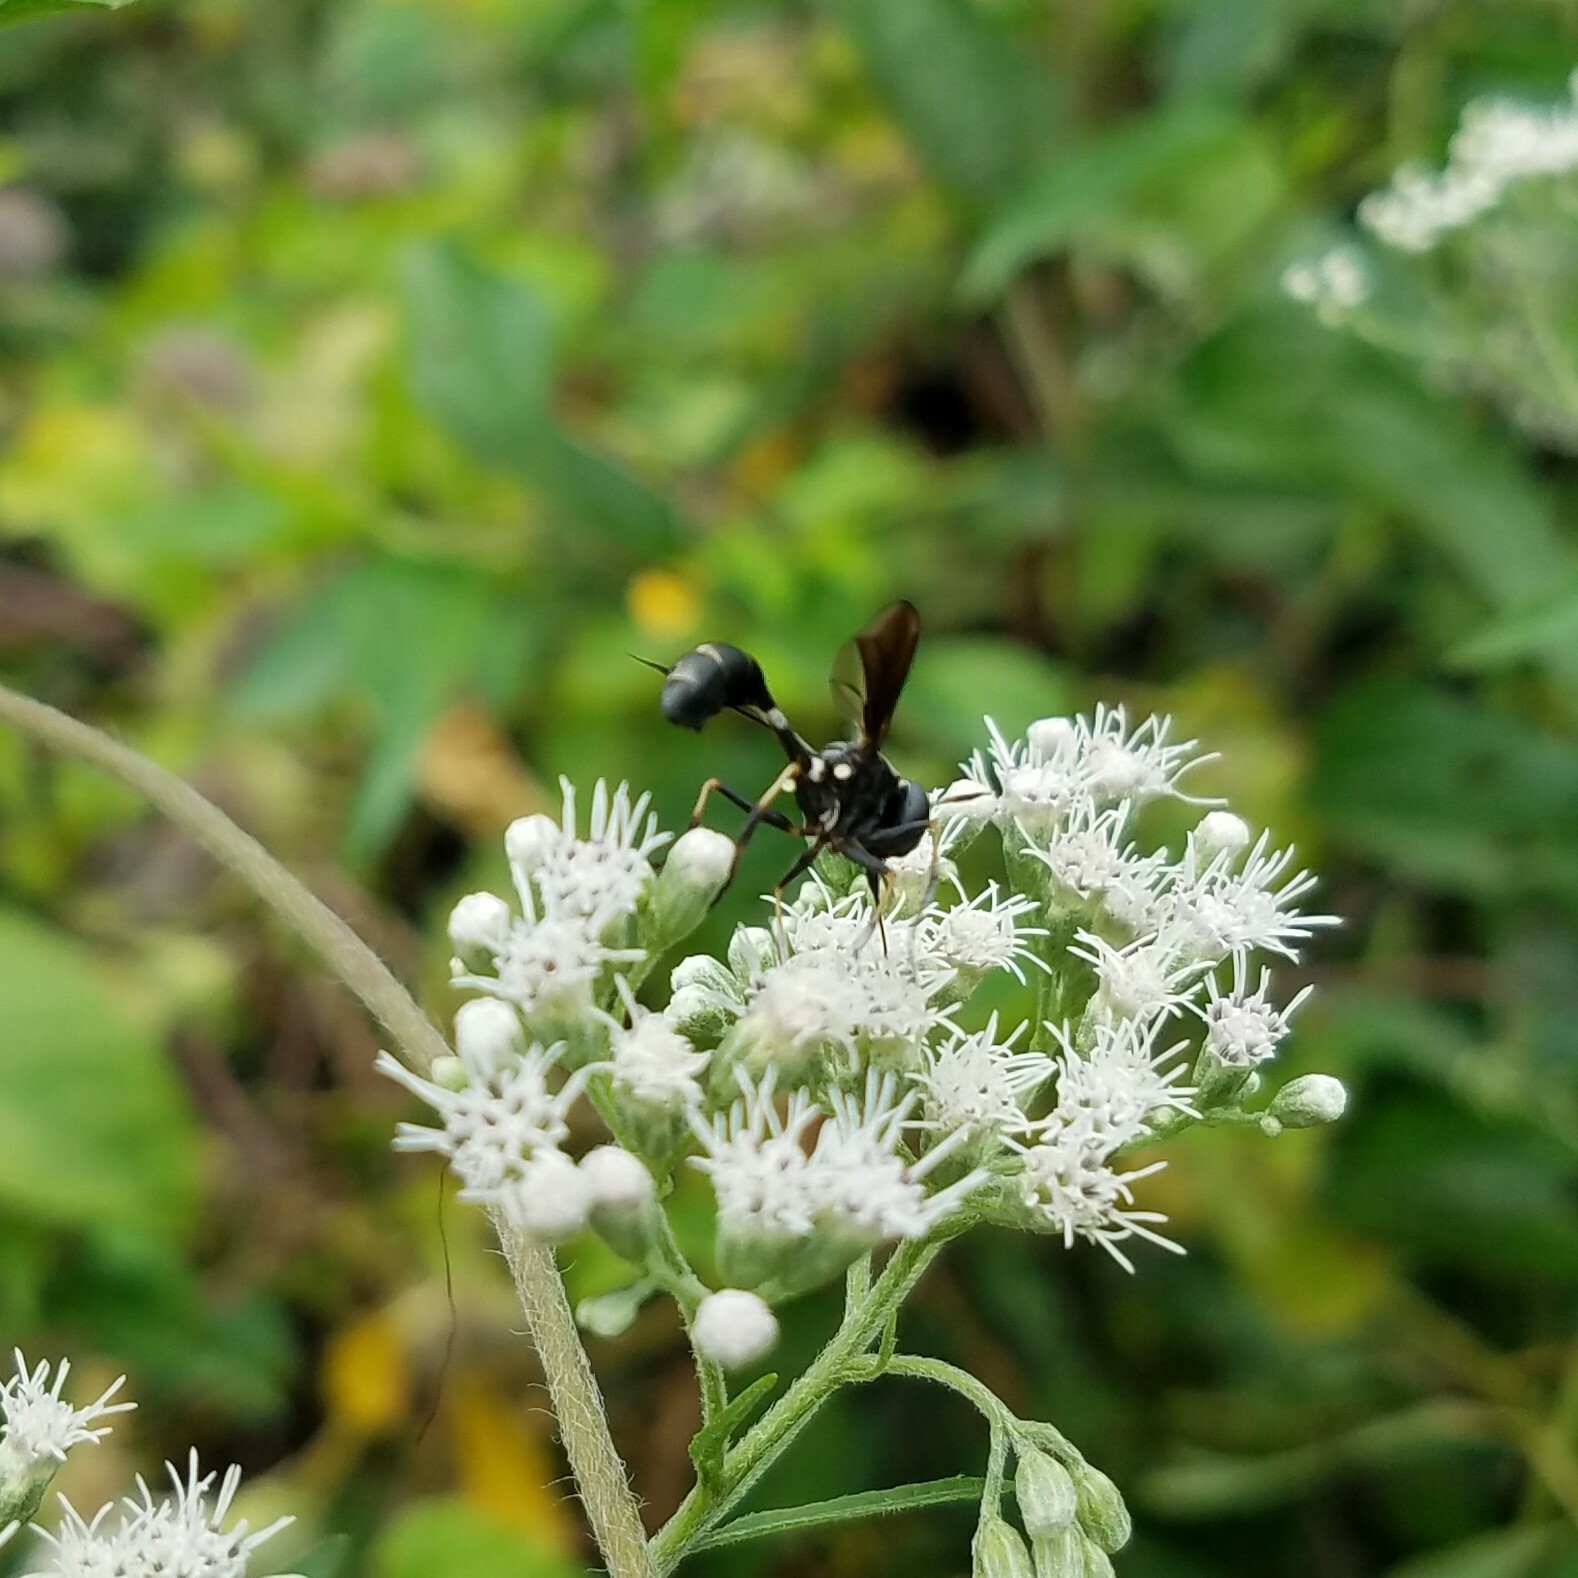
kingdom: Animalia
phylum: Arthropoda
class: Insecta
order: Diptera
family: Conopidae
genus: Physocephala
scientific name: Physocephala tibialis
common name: Common eastern physocephala
